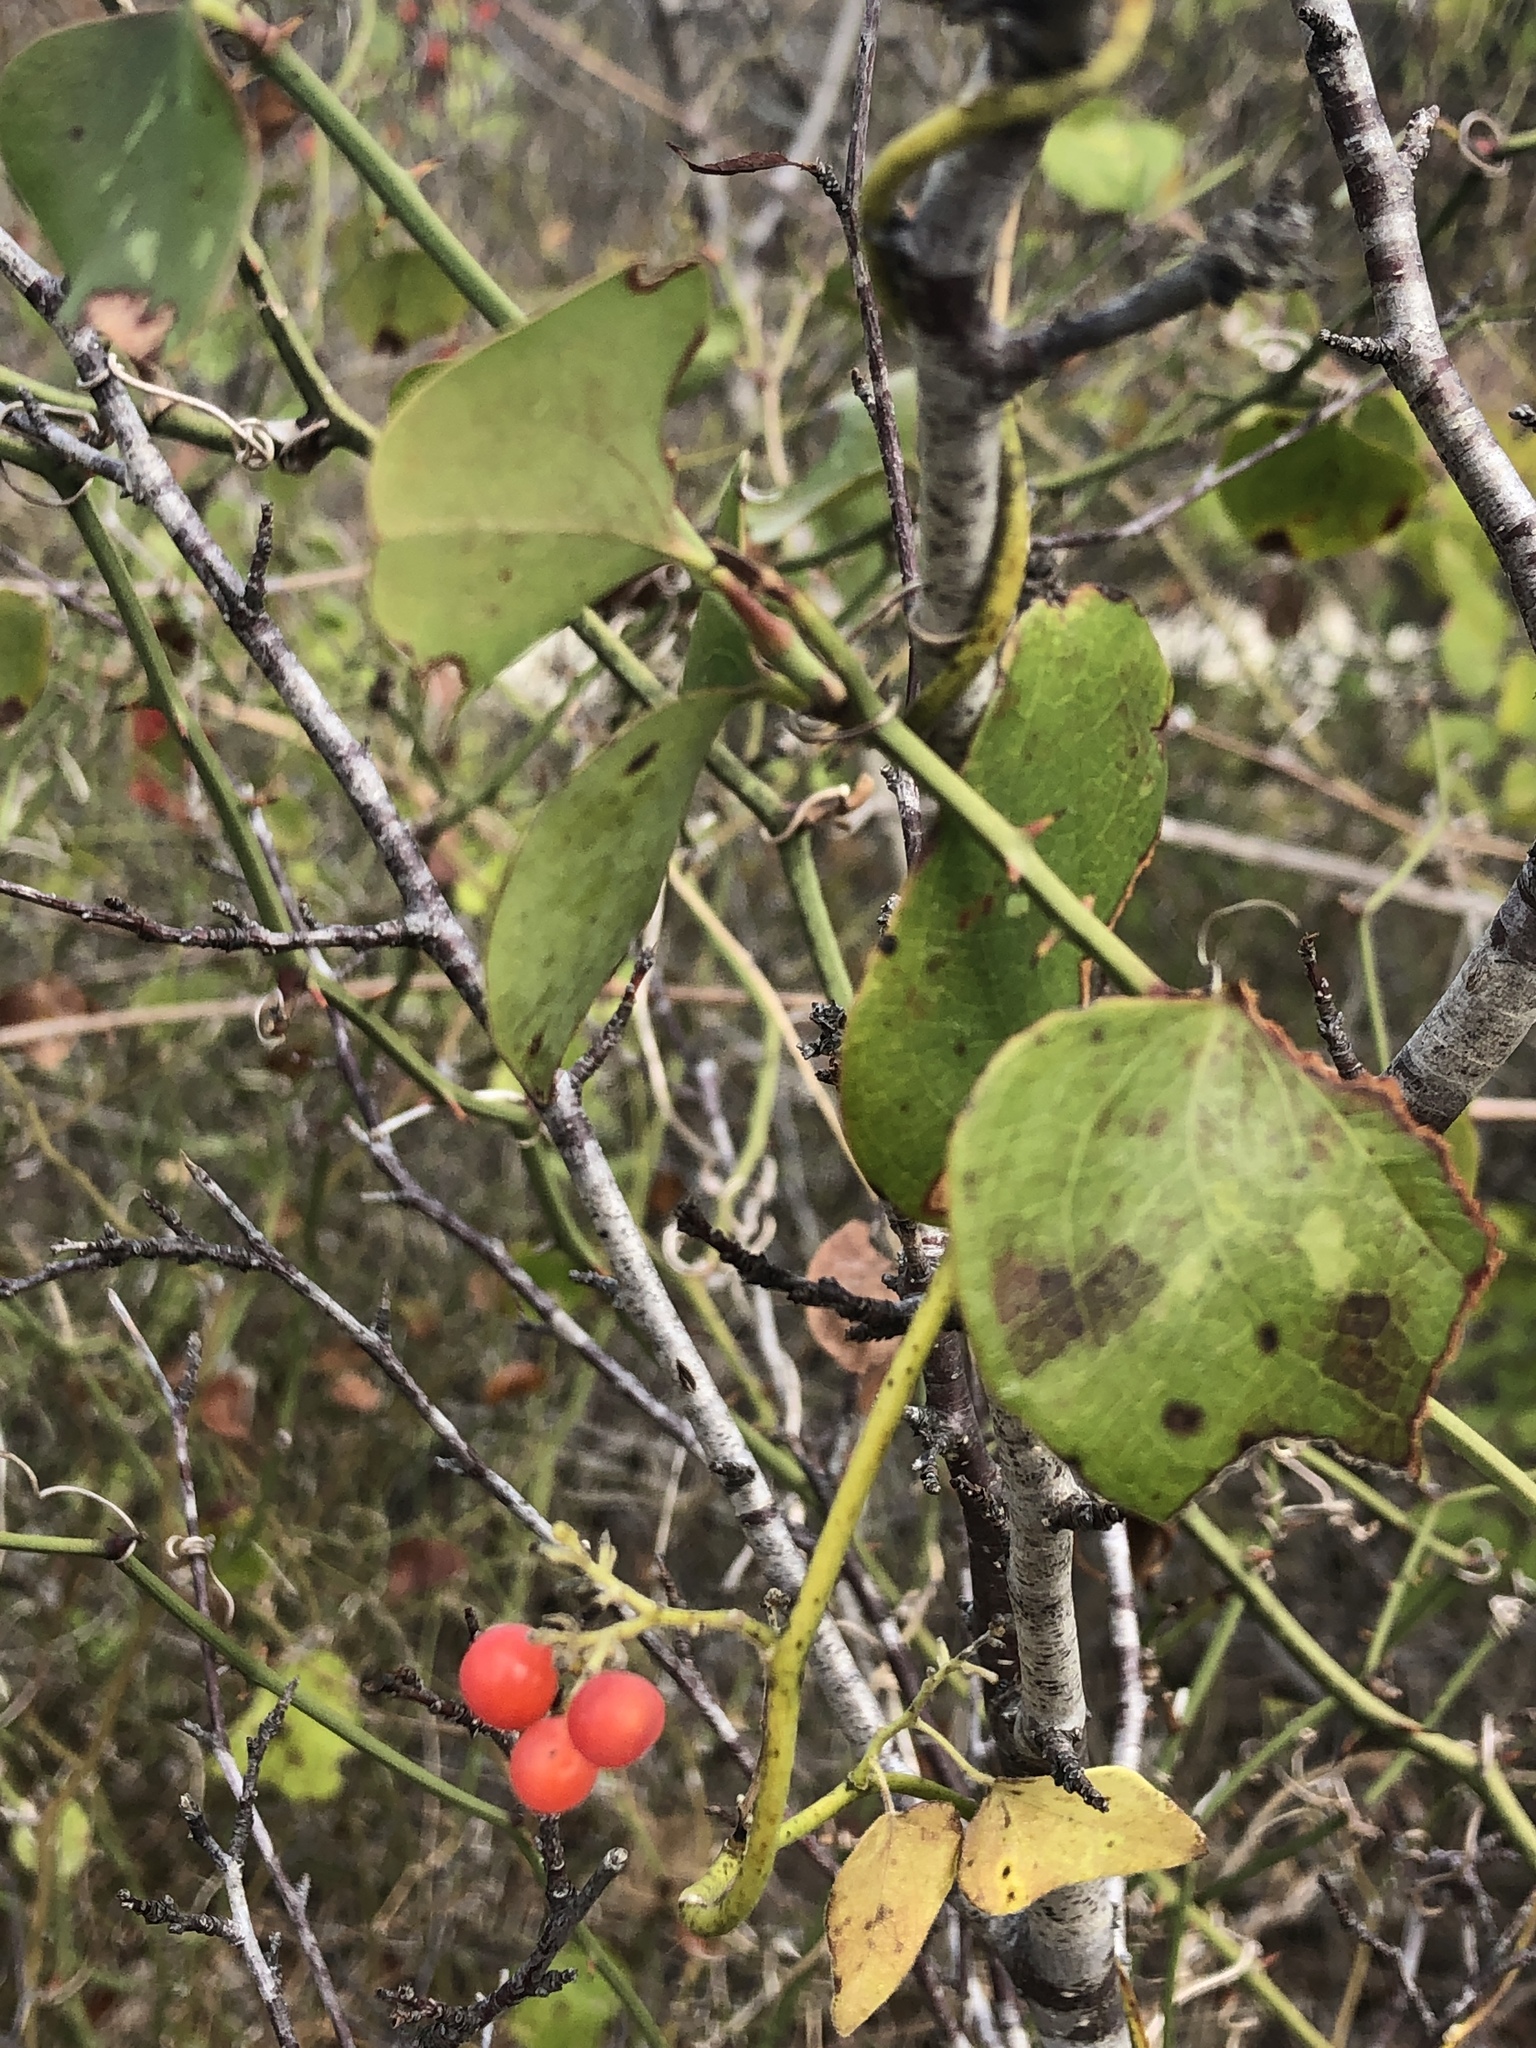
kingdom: Plantae
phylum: Tracheophyta
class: Magnoliopsida
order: Ranunculales
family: Menispermaceae
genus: Cocculus
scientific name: Cocculus carolinus
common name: Carolina moonseed
